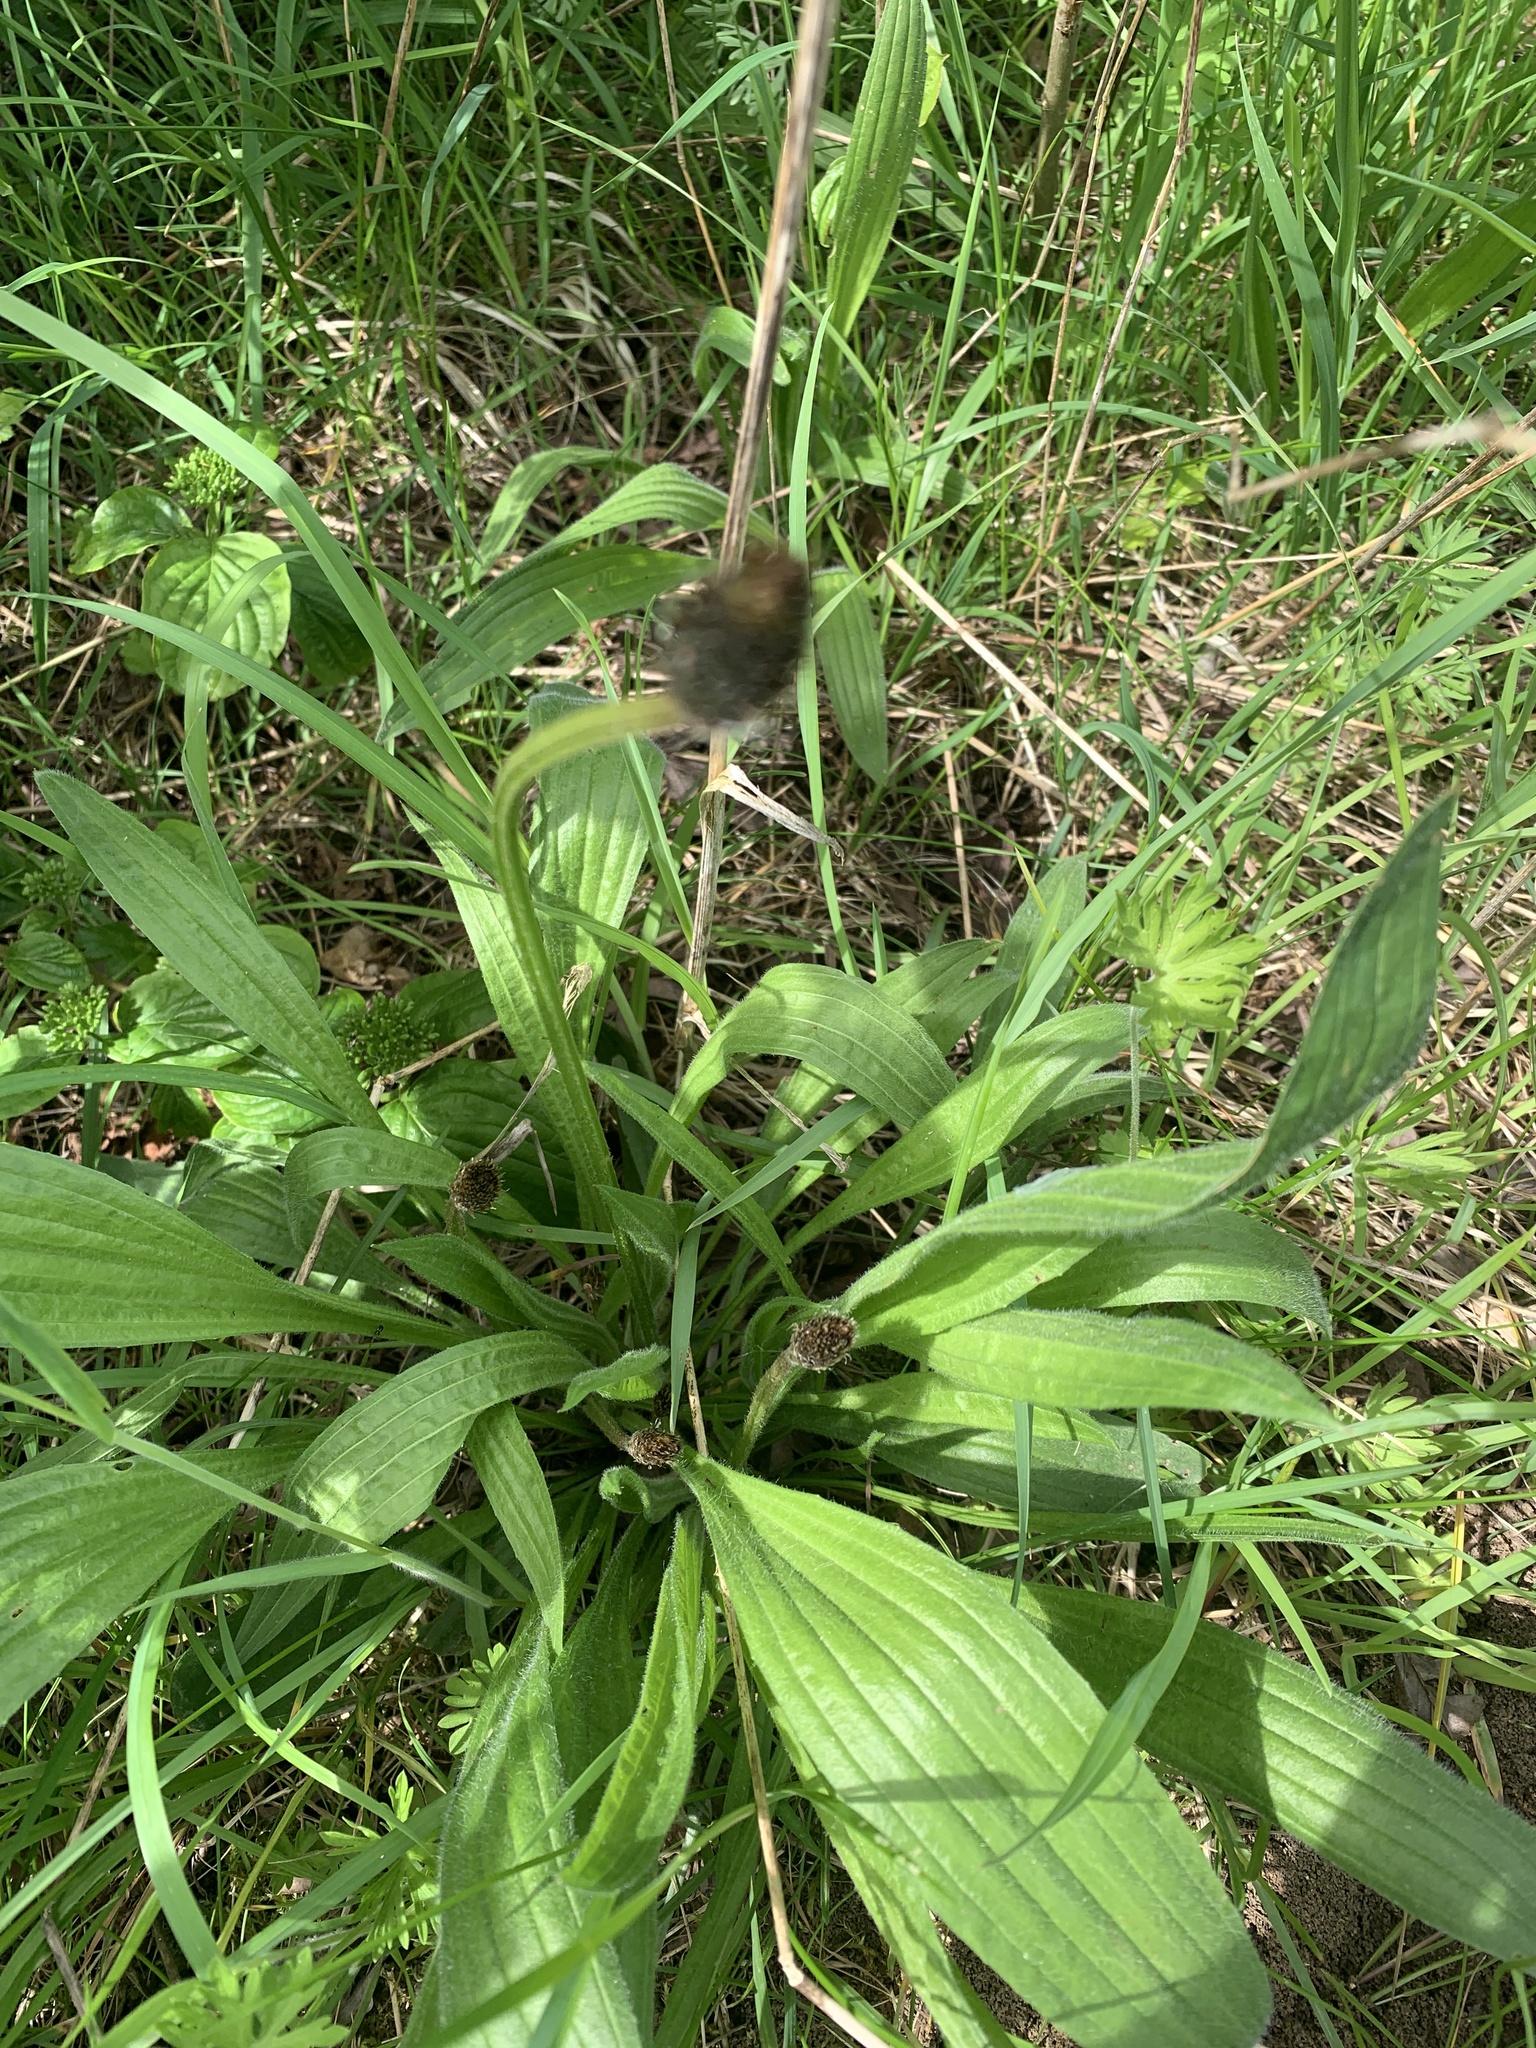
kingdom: Plantae
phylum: Tracheophyta
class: Magnoliopsida
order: Lamiales
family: Plantaginaceae
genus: Plantago
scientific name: Plantago lanceolata
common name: Ribwort plantain
